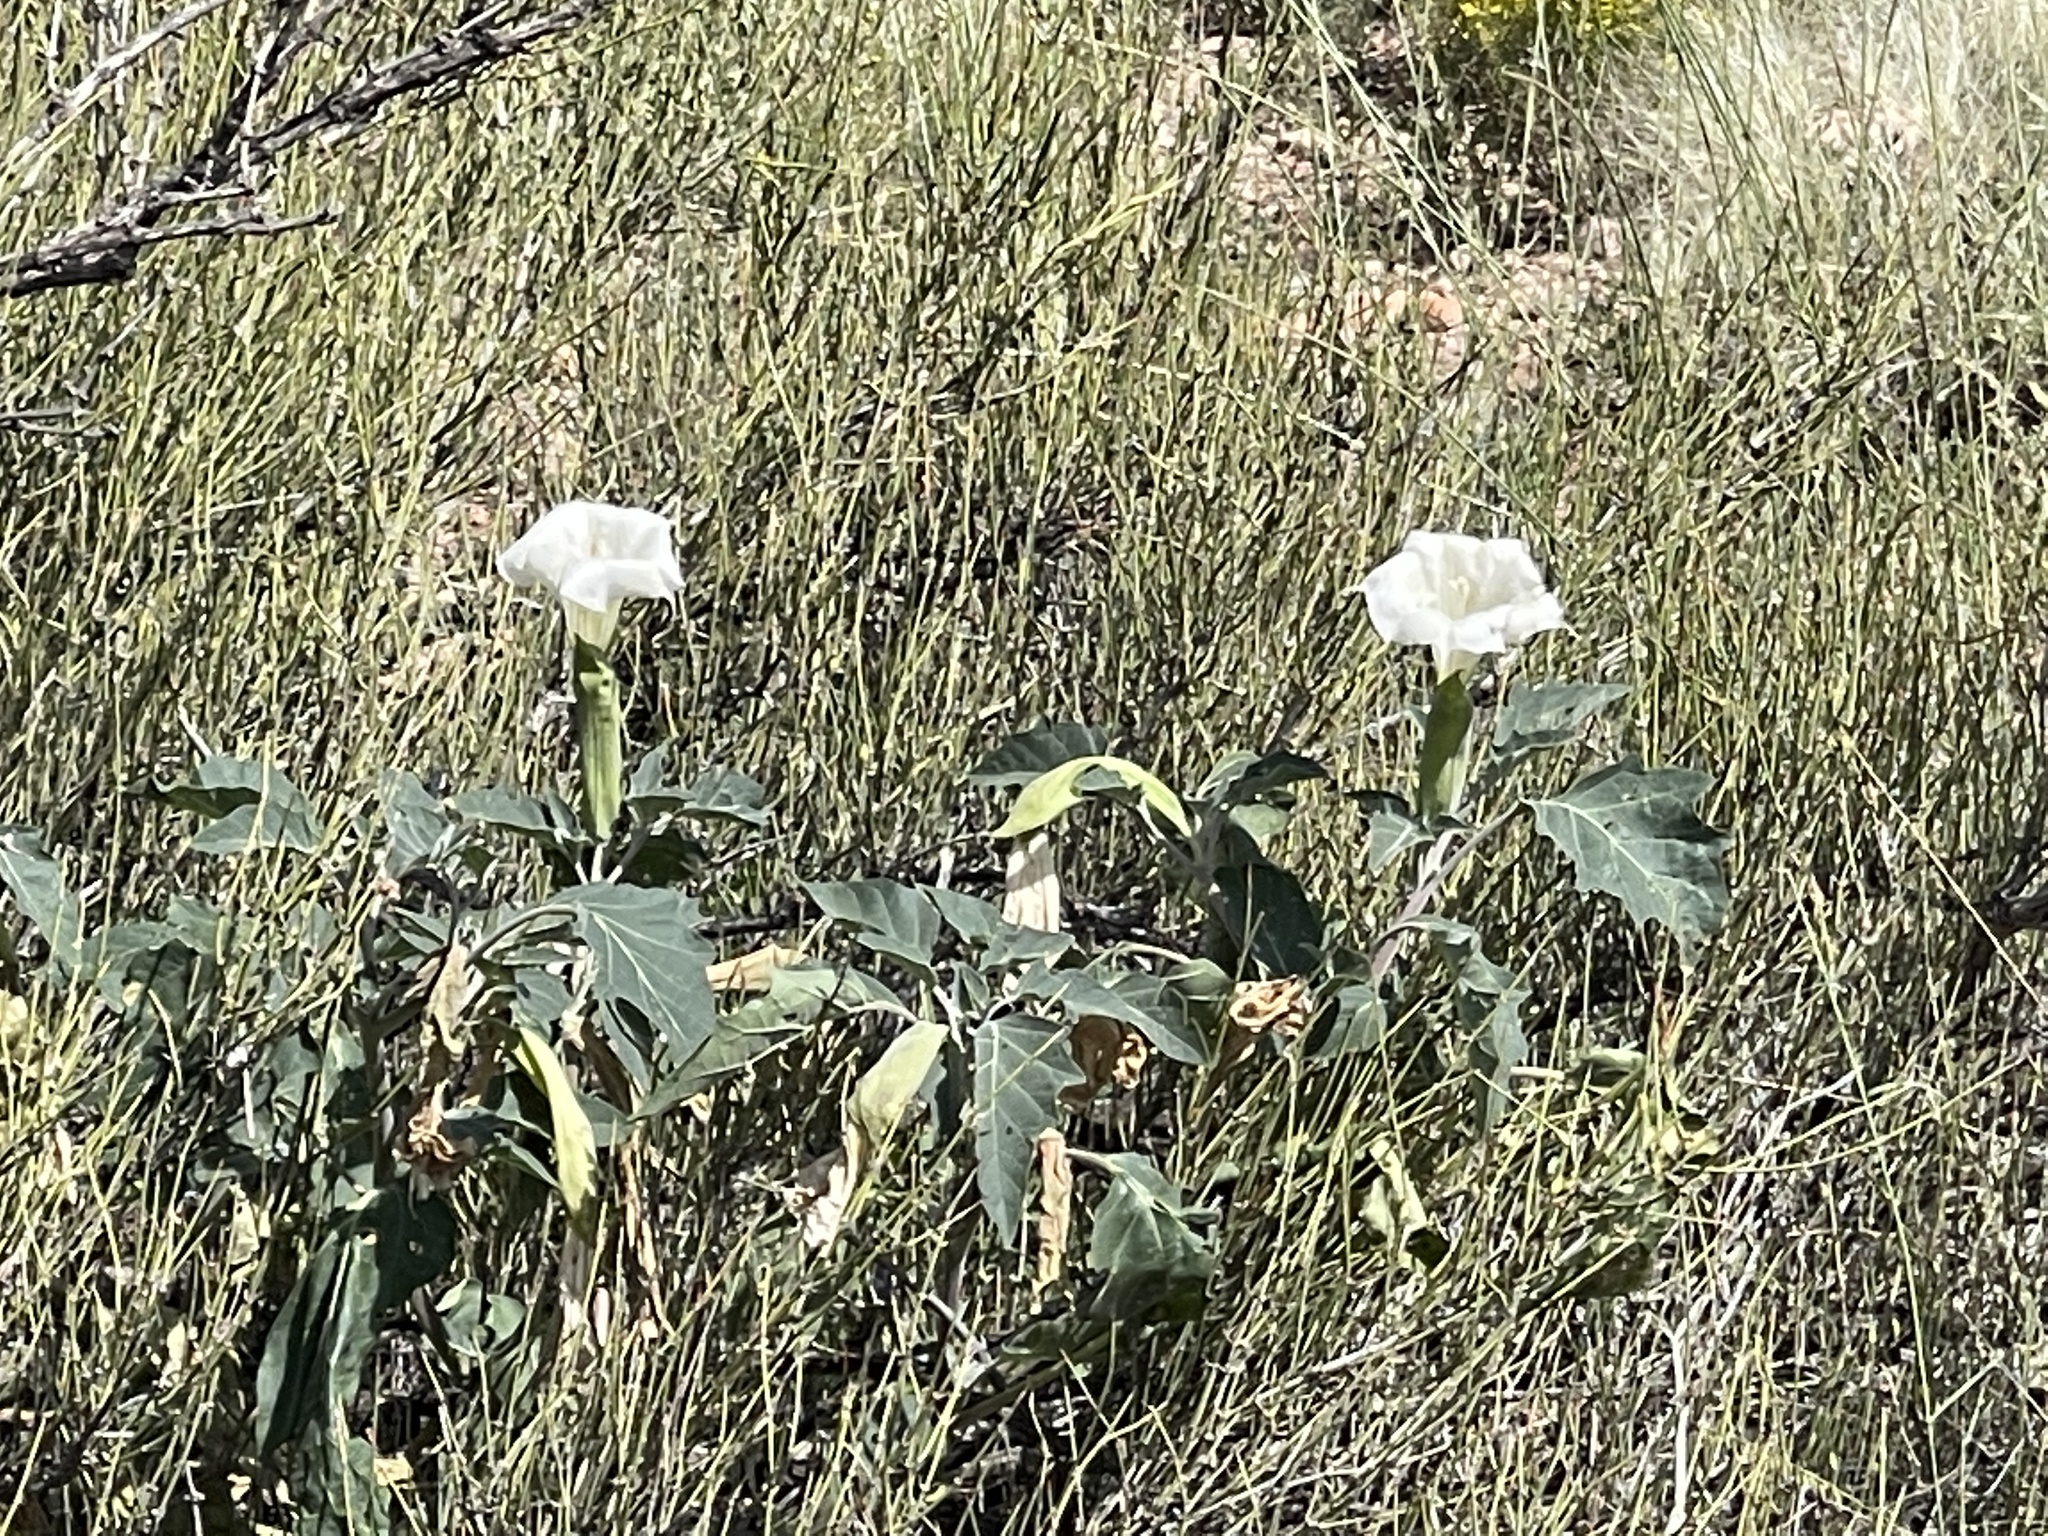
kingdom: Plantae
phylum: Tracheophyta
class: Magnoliopsida
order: Solanales
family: Solanaceae
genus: Datura
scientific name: Datura wrightii
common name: Sacred thorn-apple
